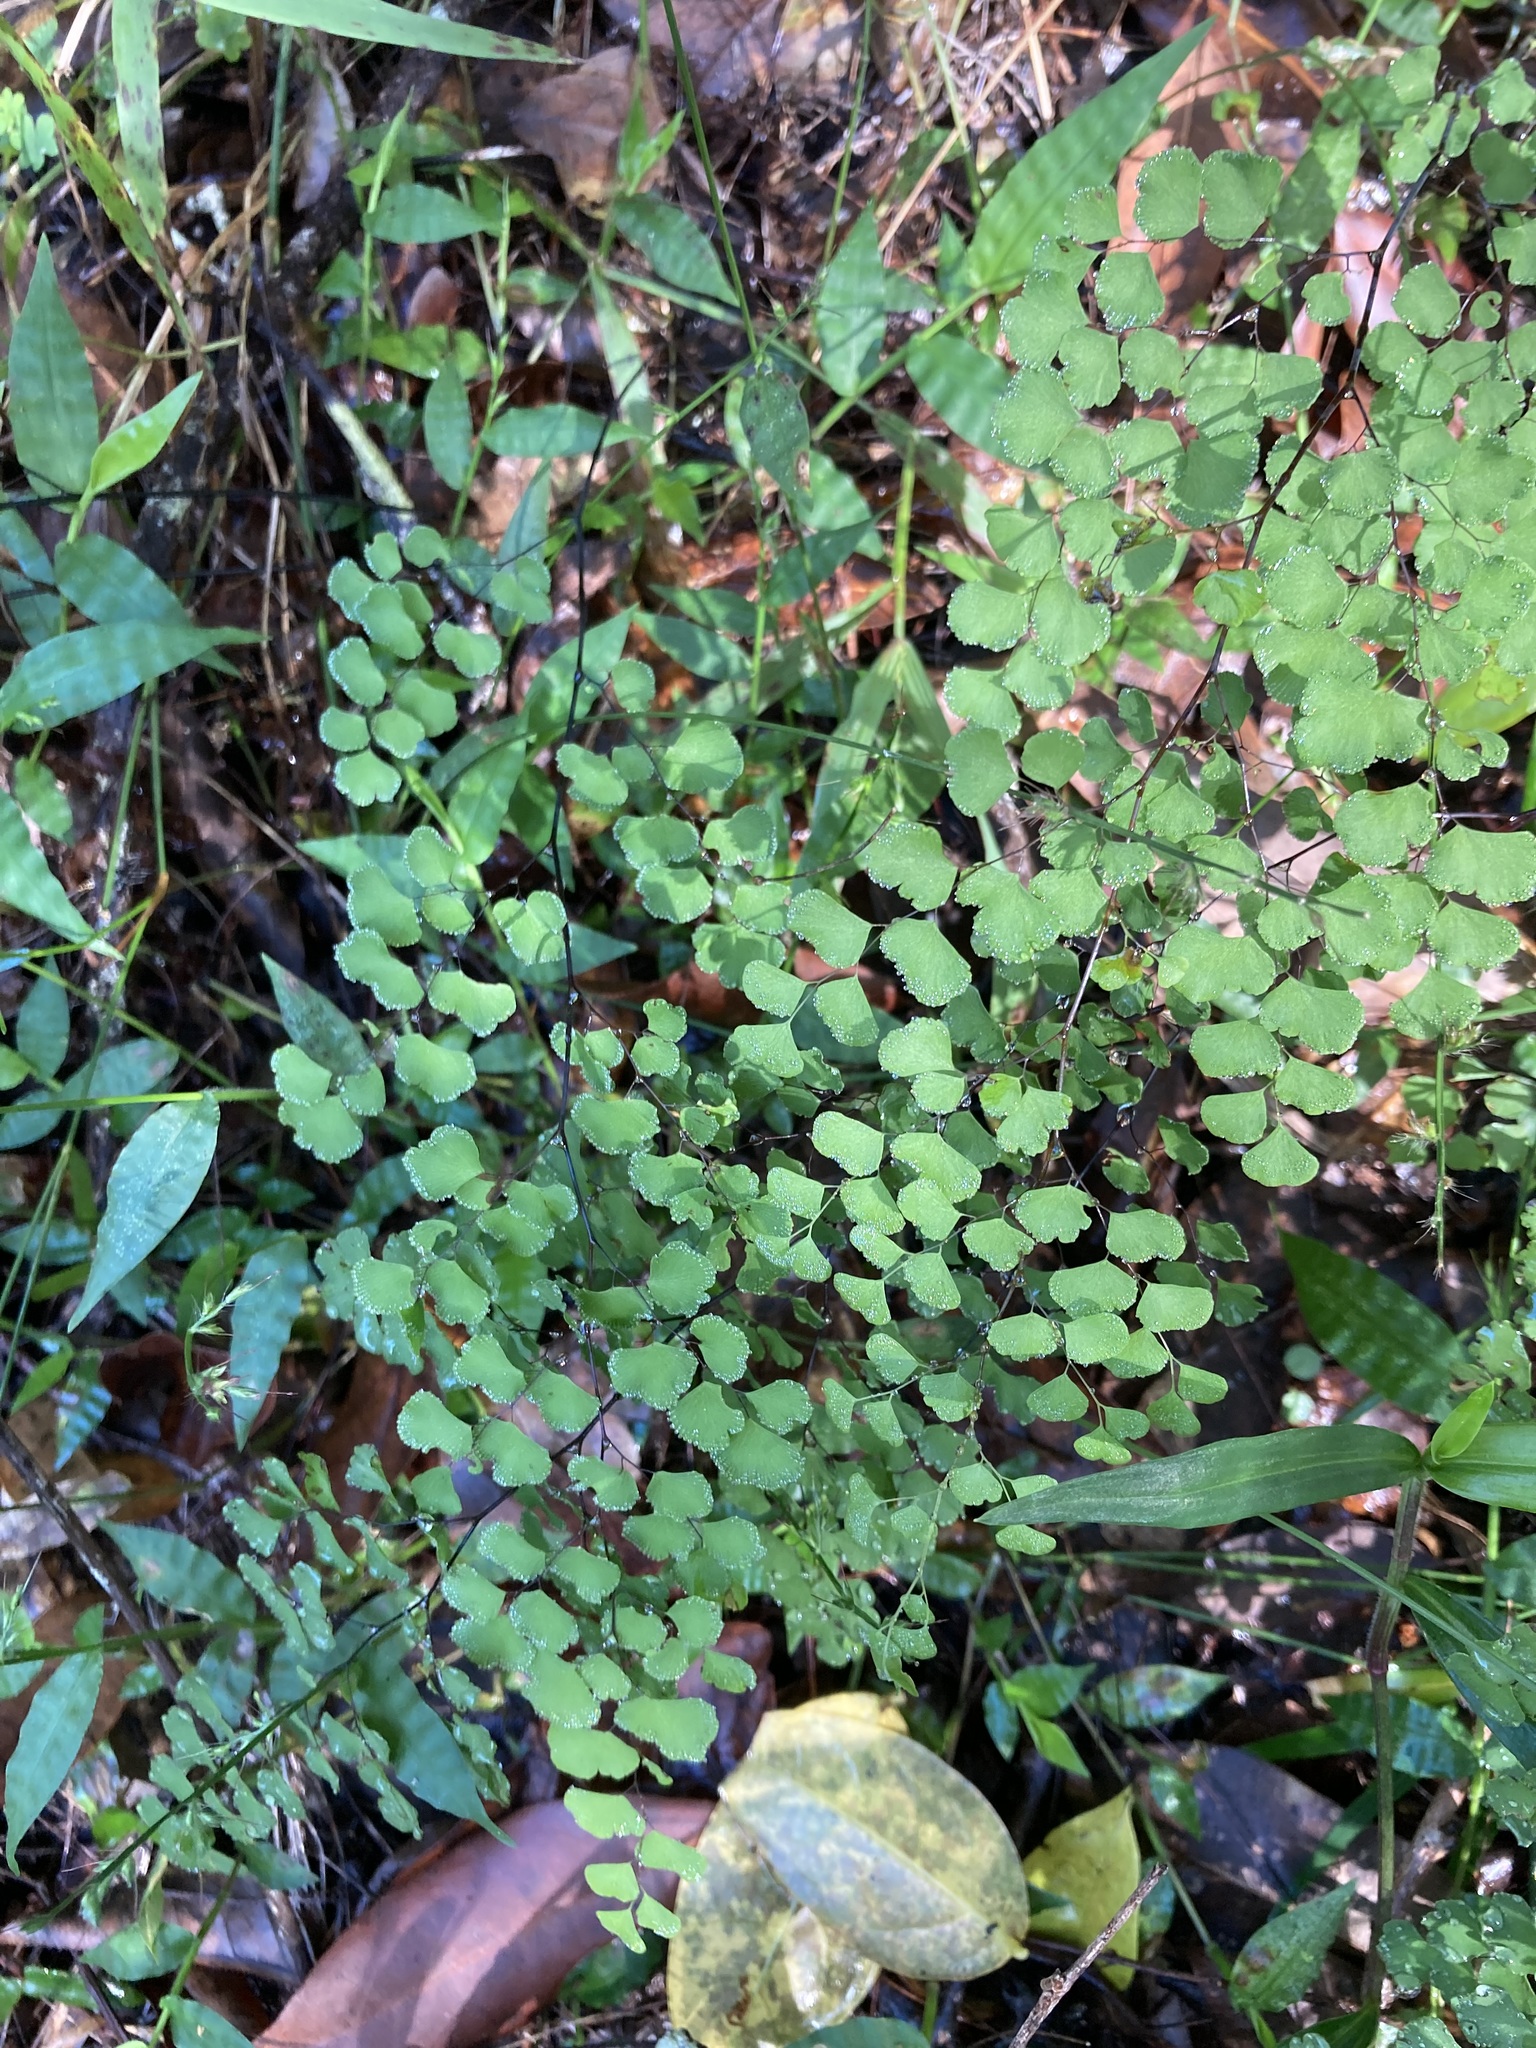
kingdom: Plantae
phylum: Tracheophyta
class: Polypodiopsida
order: Polypodiales
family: Pteridaceae
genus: Adiantum
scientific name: Adiantum aethiopicum
